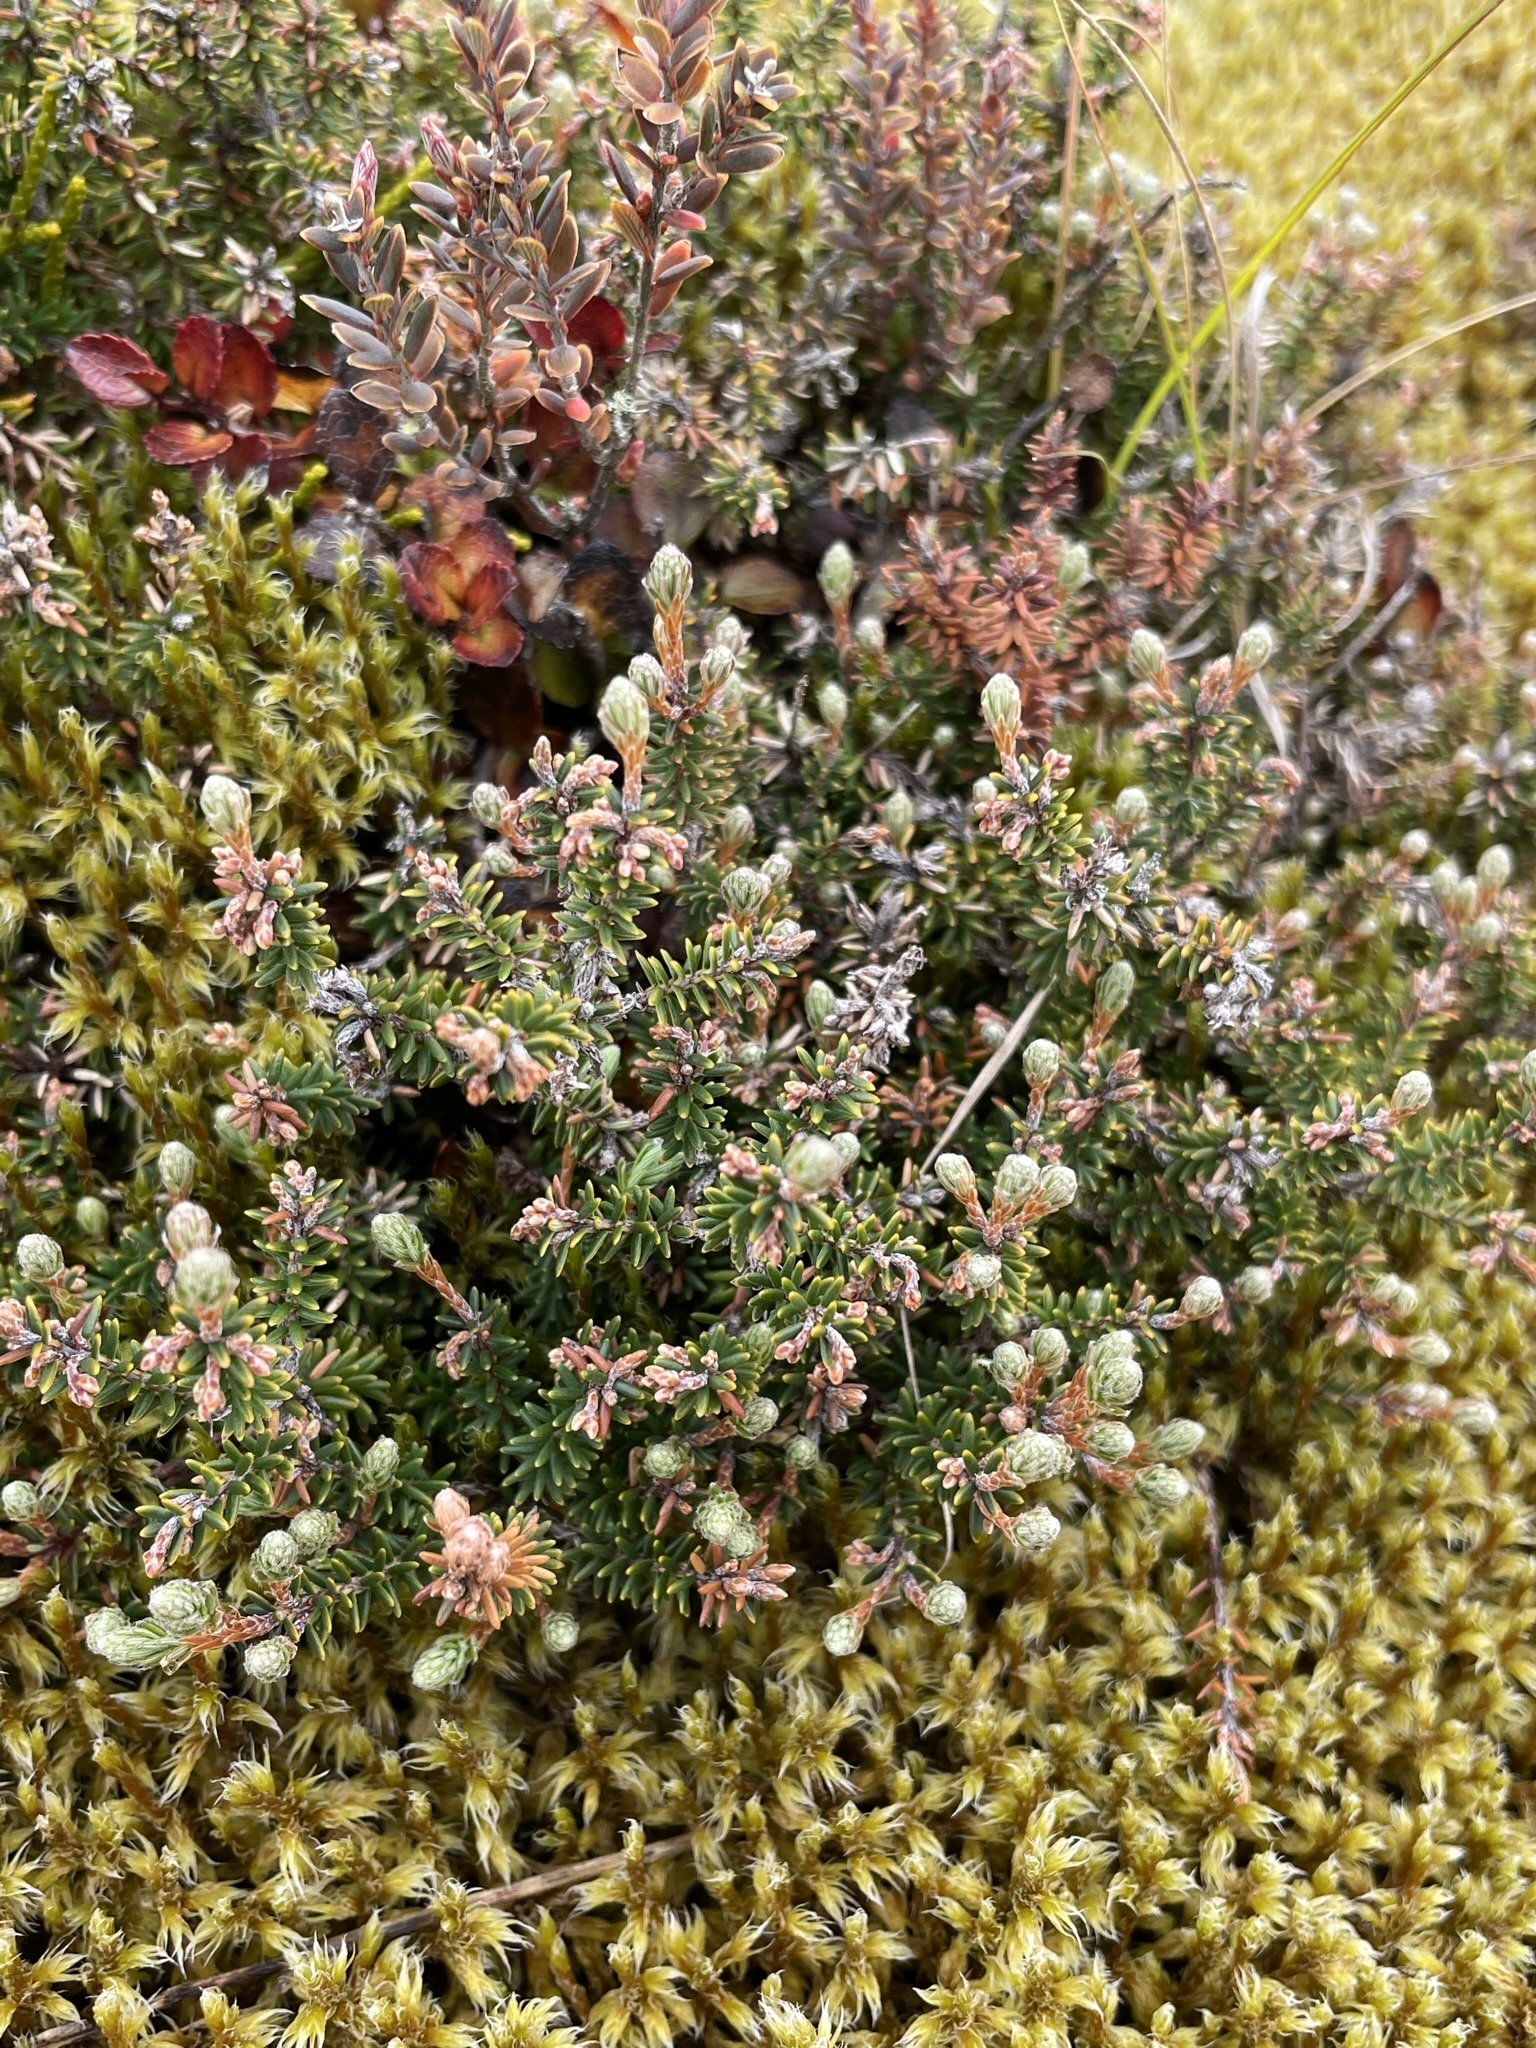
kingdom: Plantae
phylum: Tracheophyta
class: Magnoliopsida
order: Ericales
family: Ericaceae
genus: Androstoma
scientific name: Androstoma empetrifolia
